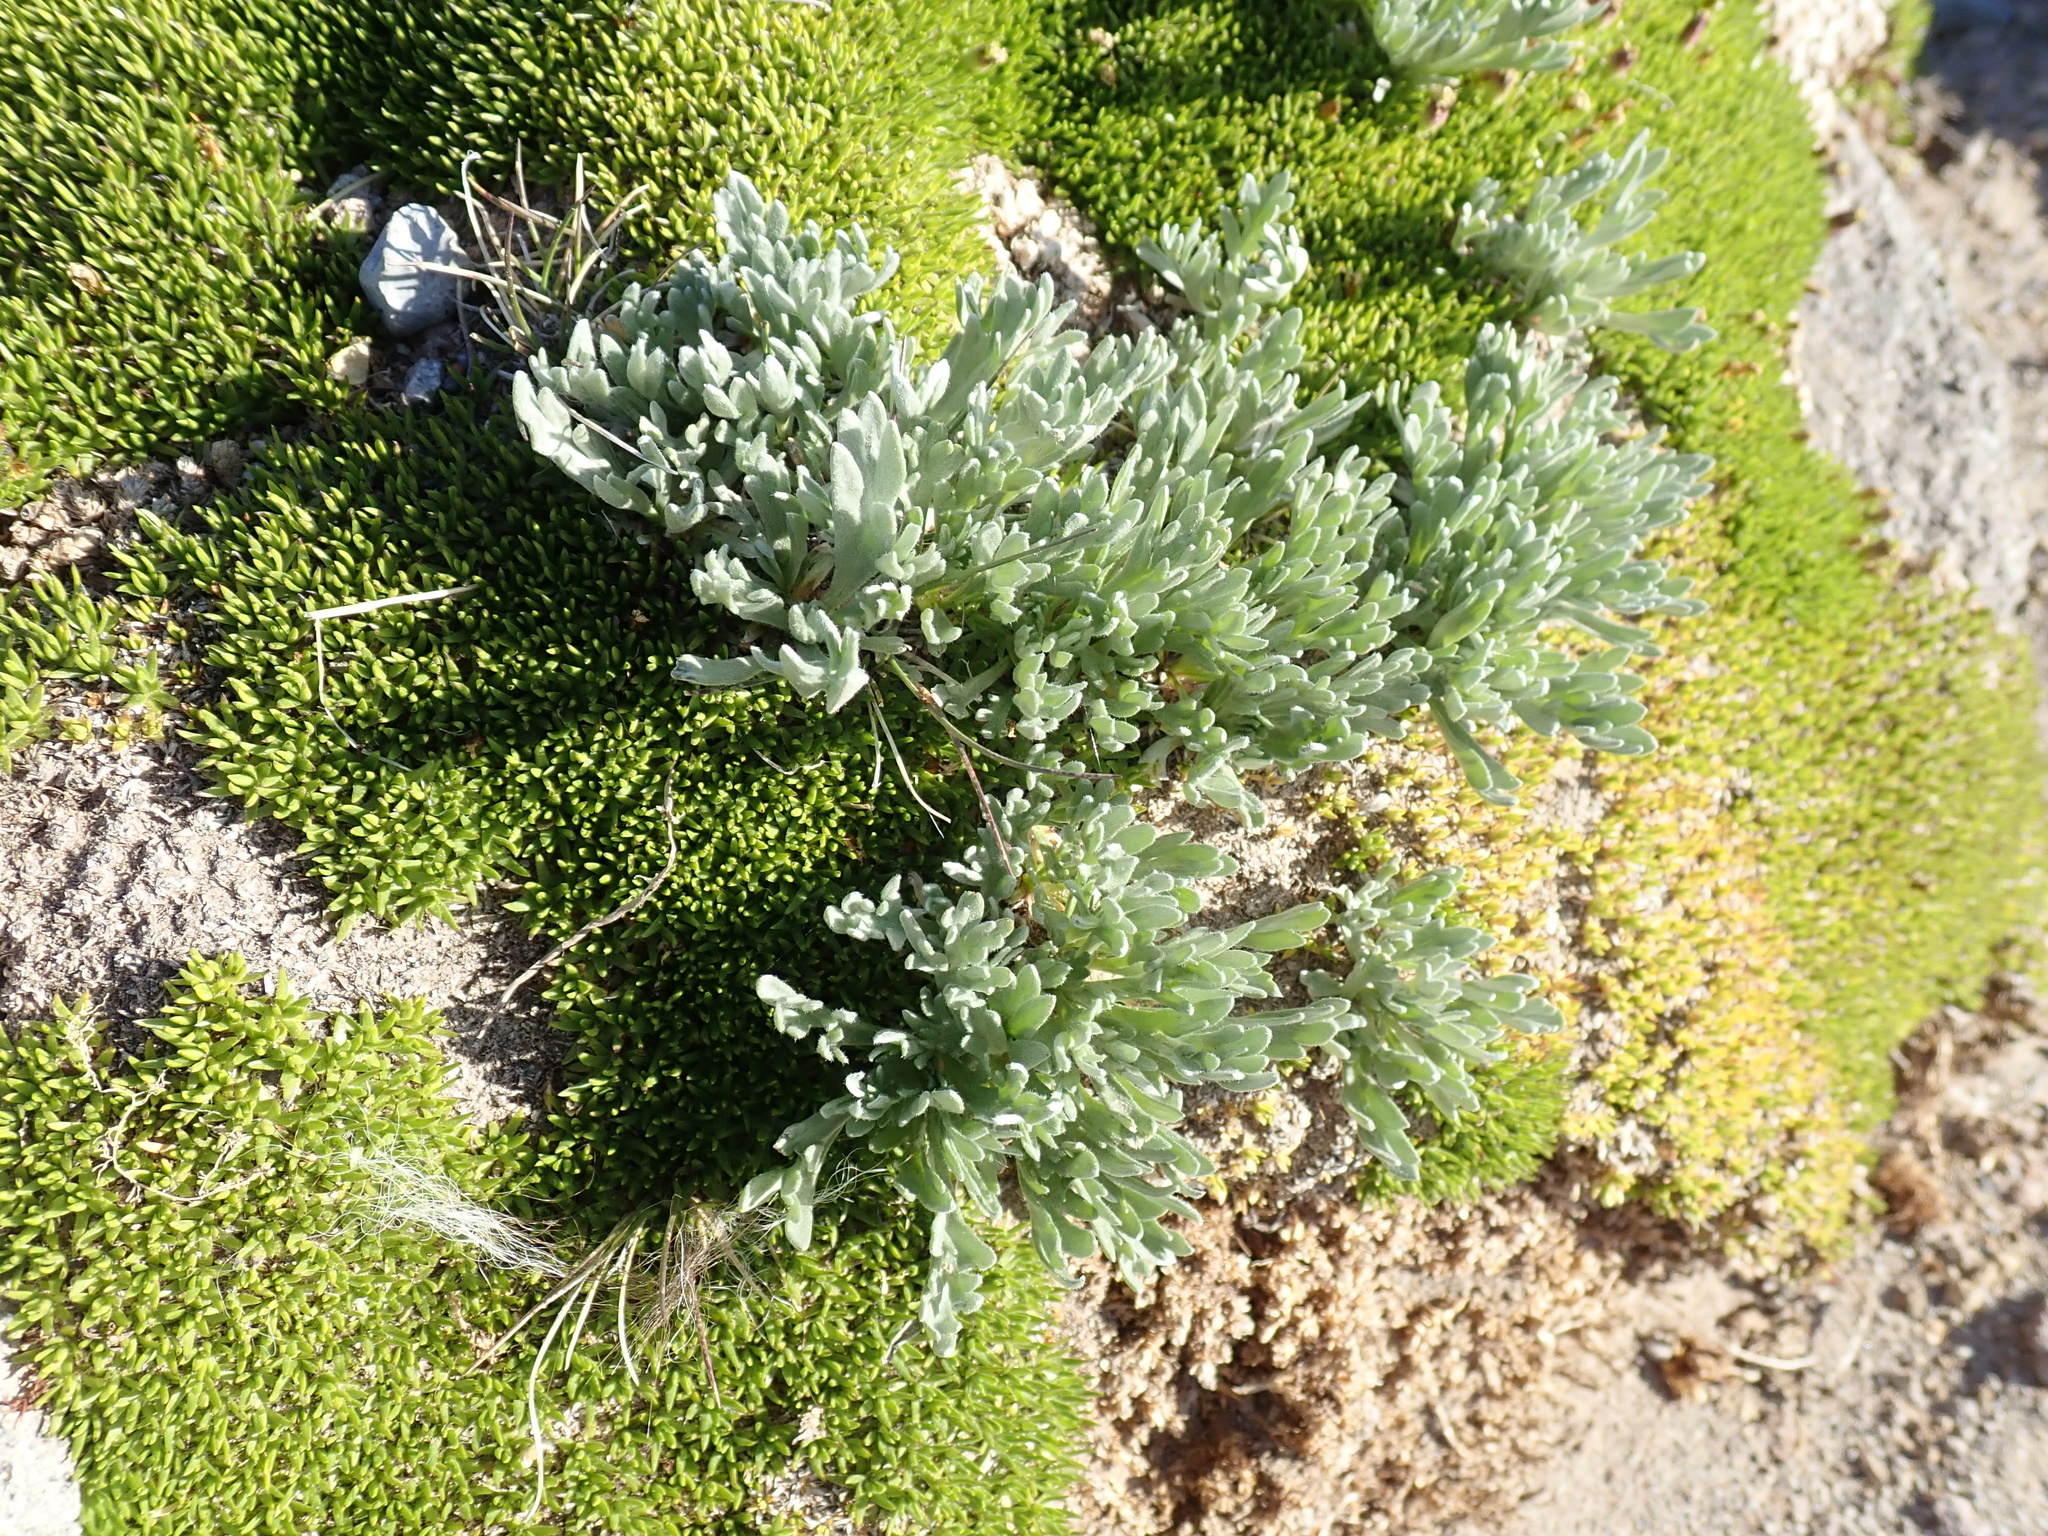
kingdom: Plantae
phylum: Tracheophyta
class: Magnoliopsida
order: Caryophyllales
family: Caryophyllaceae
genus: Silene
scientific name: Silene acaulis
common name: Moss campion
